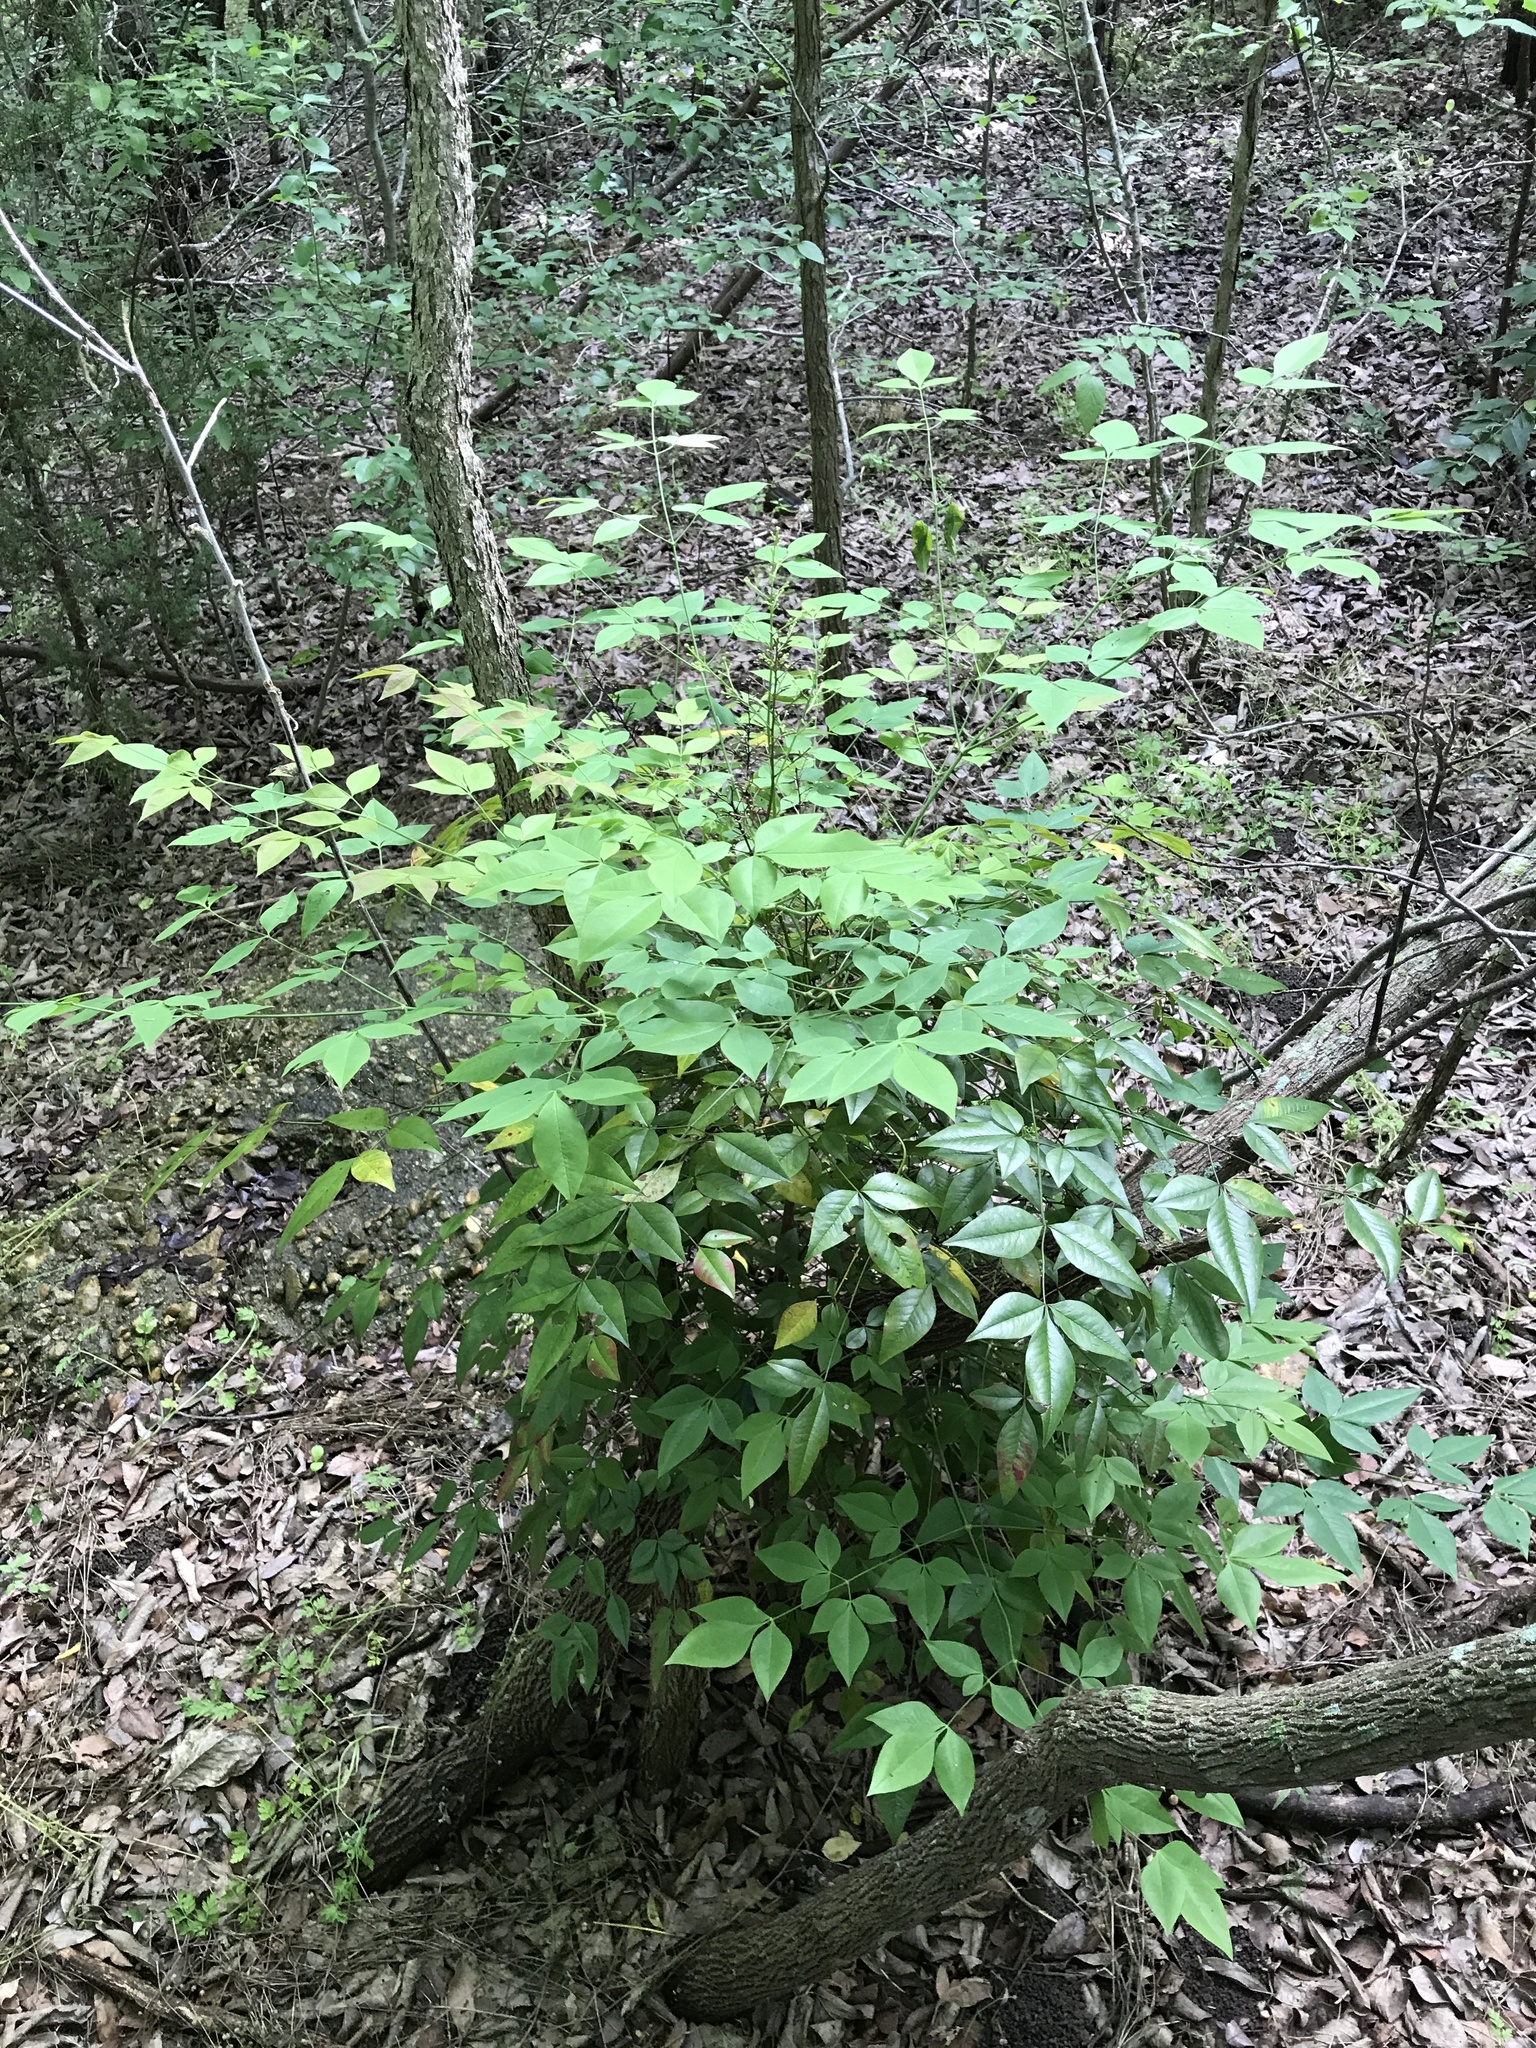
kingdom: Plantae
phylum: Tracheophyta
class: Magnoliopsida
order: Ranunculales
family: Berberidaceae
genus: Nandina
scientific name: Nandina domestica
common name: Sacred bamboo
